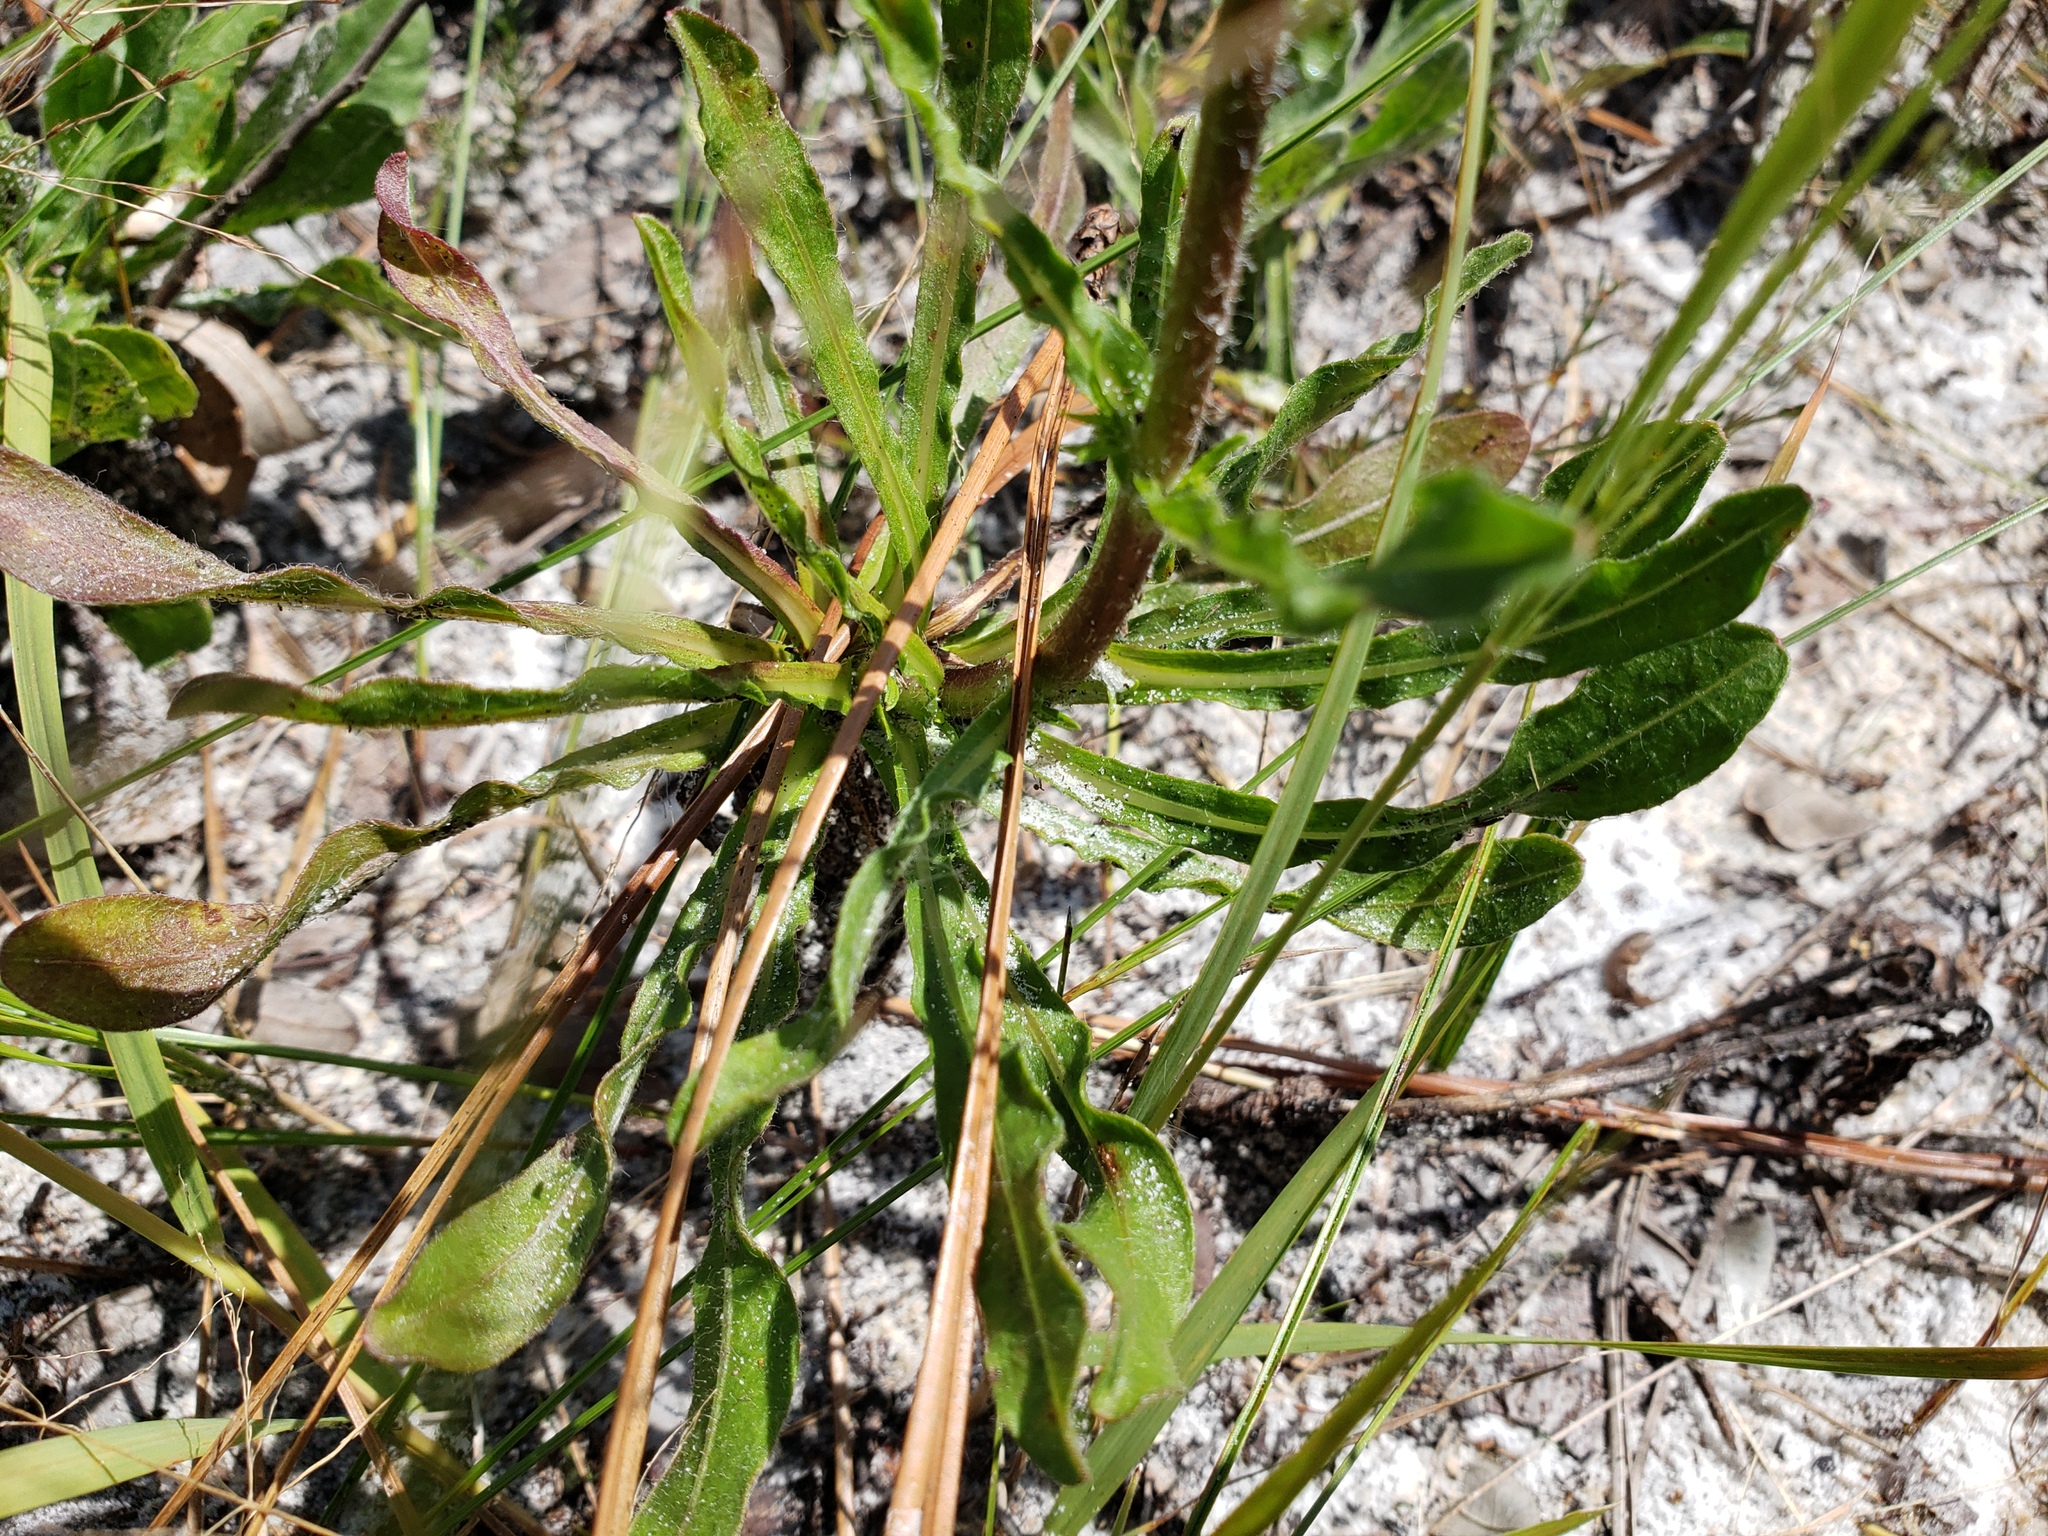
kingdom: Plantae
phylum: Tracheophyta
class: Magnoliopsida
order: Asterales
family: Asteraceae
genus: Chrysopsis
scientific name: Chrysopsis subulata
